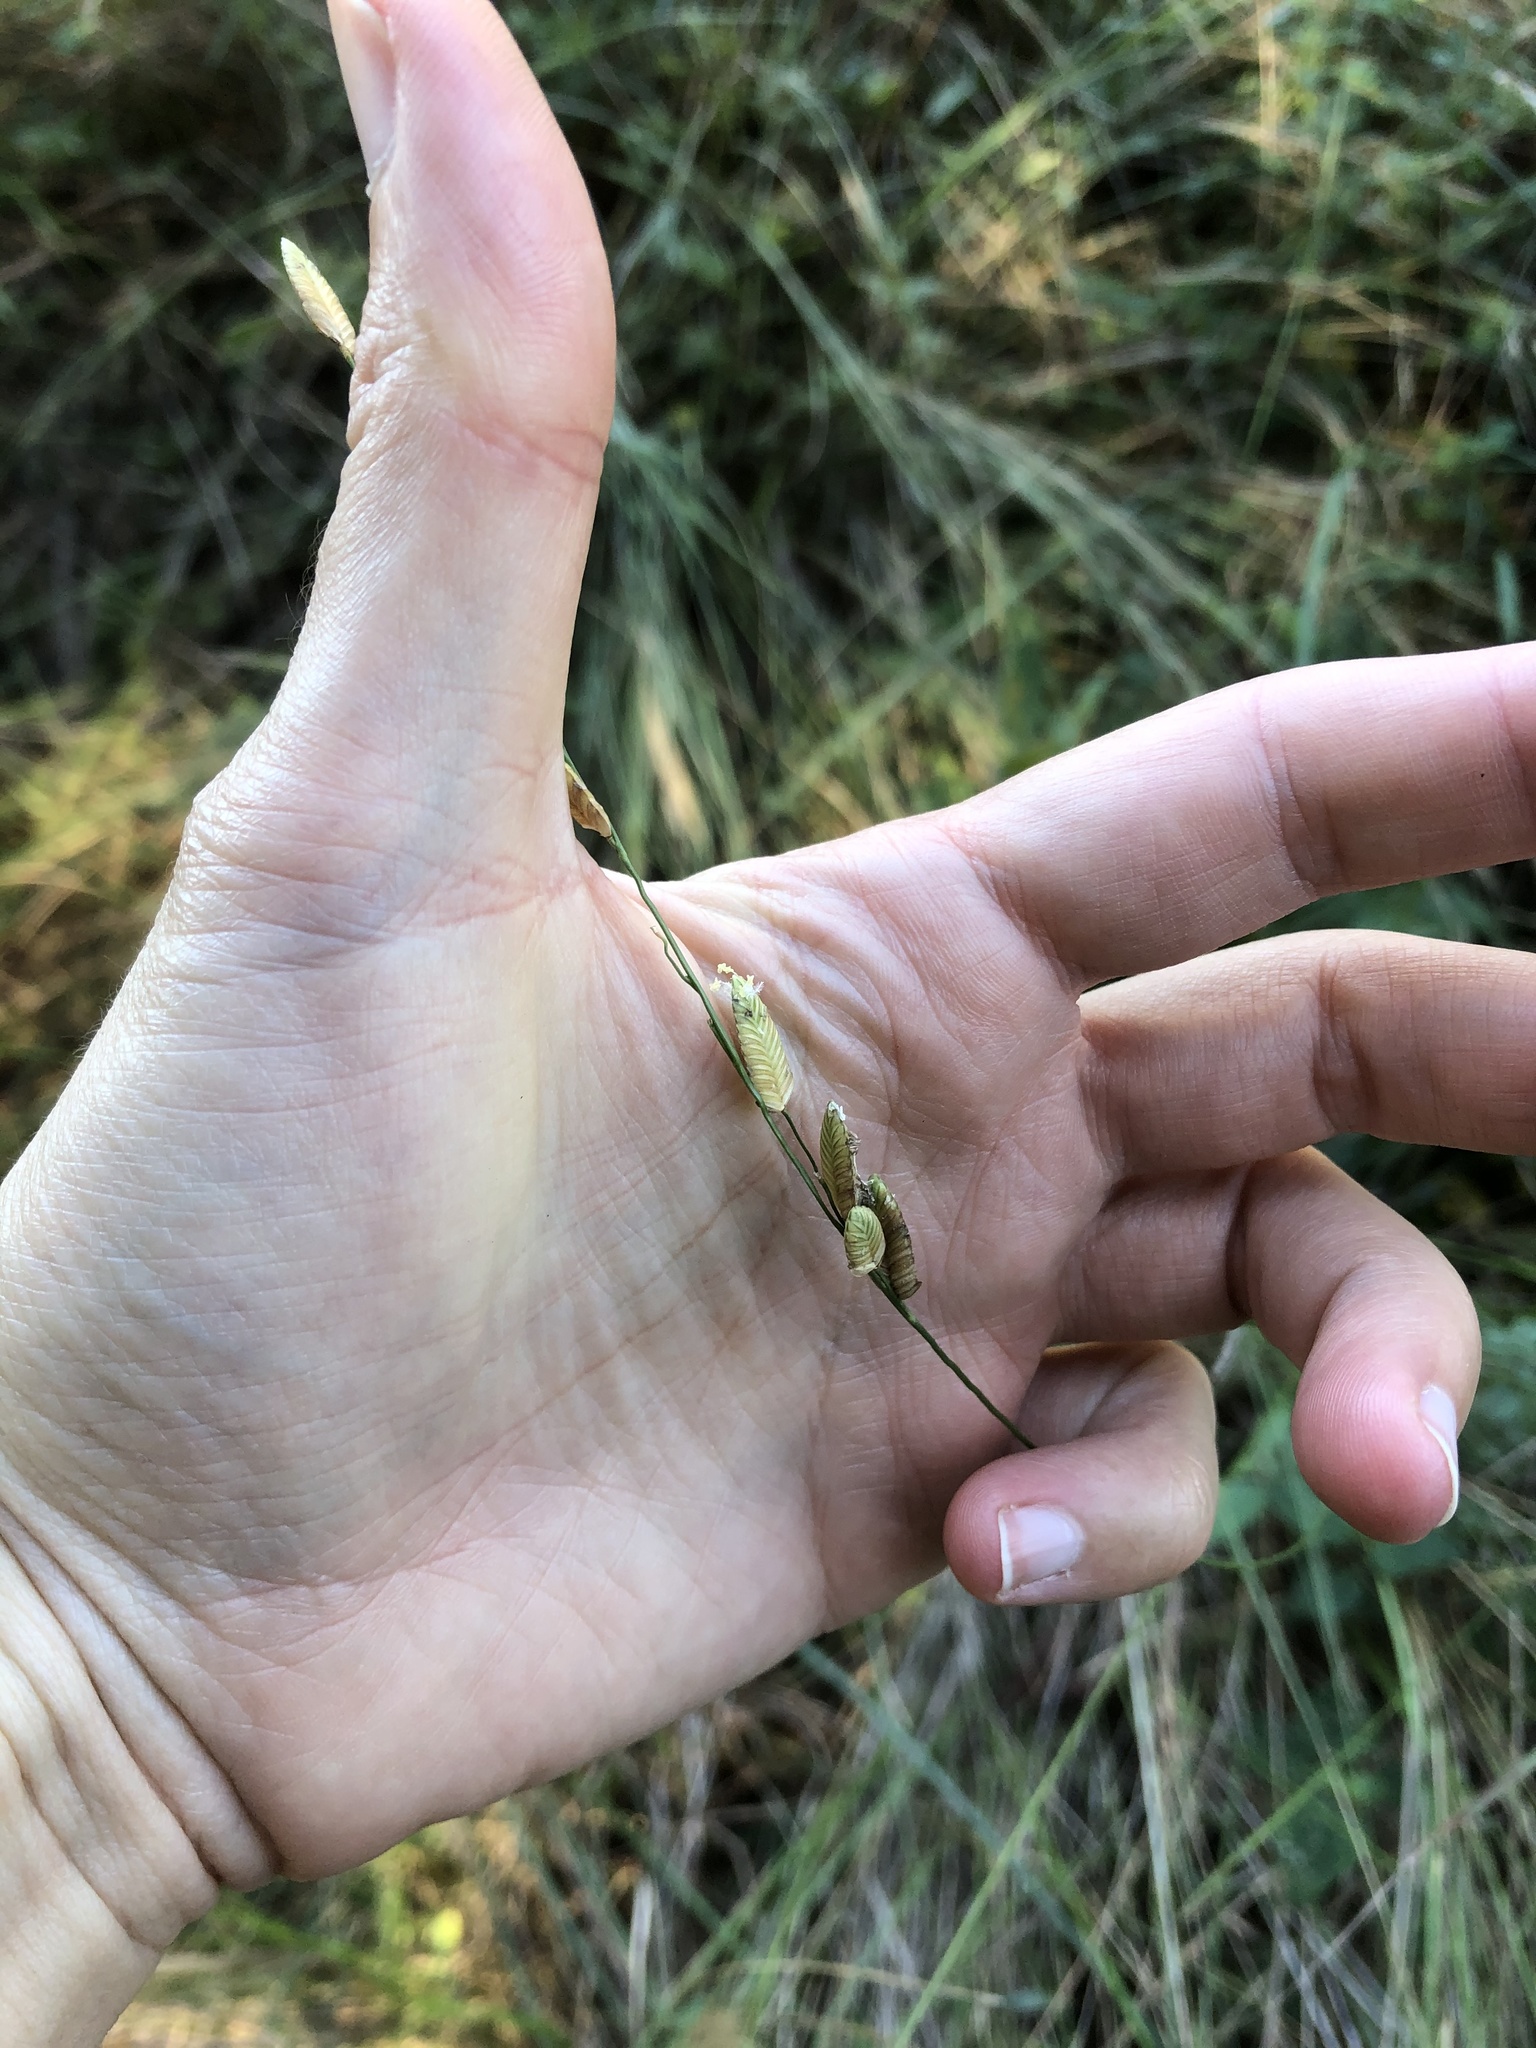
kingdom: Plantae
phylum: Tracheophyta
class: Liliopsida
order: Poales
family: Poaceae
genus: Eragrostis
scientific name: Eragrostis capensis
